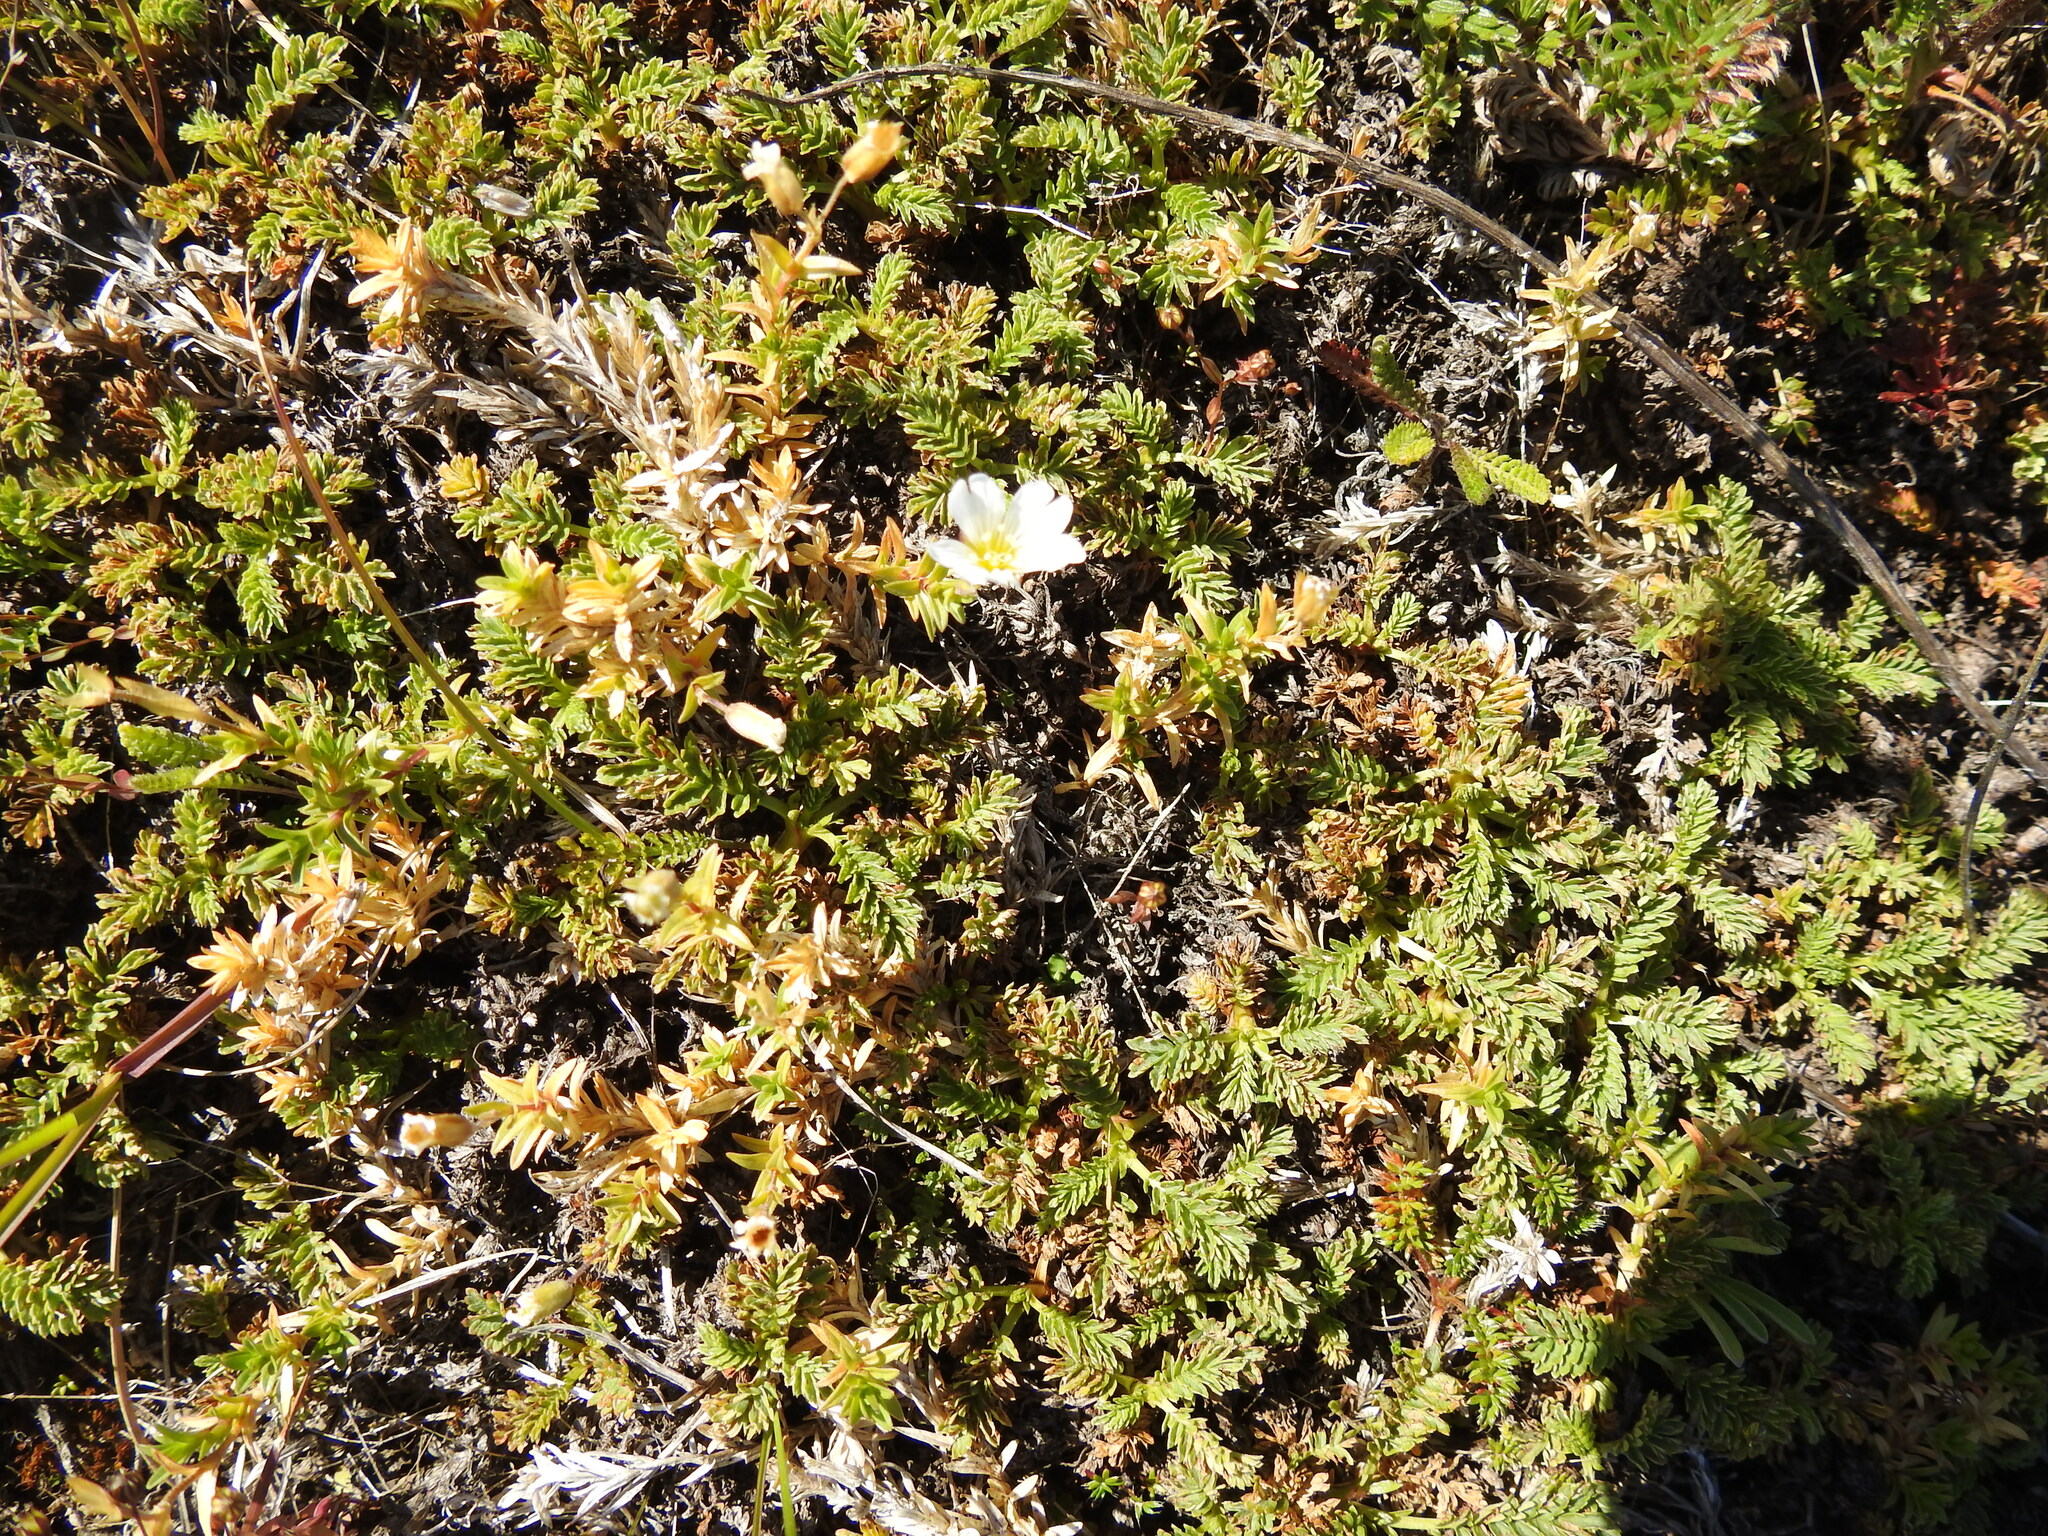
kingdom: Plantae
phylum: Tracheophyta
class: Magnoliopsida
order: Caryophyllales
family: Caryophyllaceae
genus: Cerastium
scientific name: Cerastium arvense
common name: Field mouse-ear
